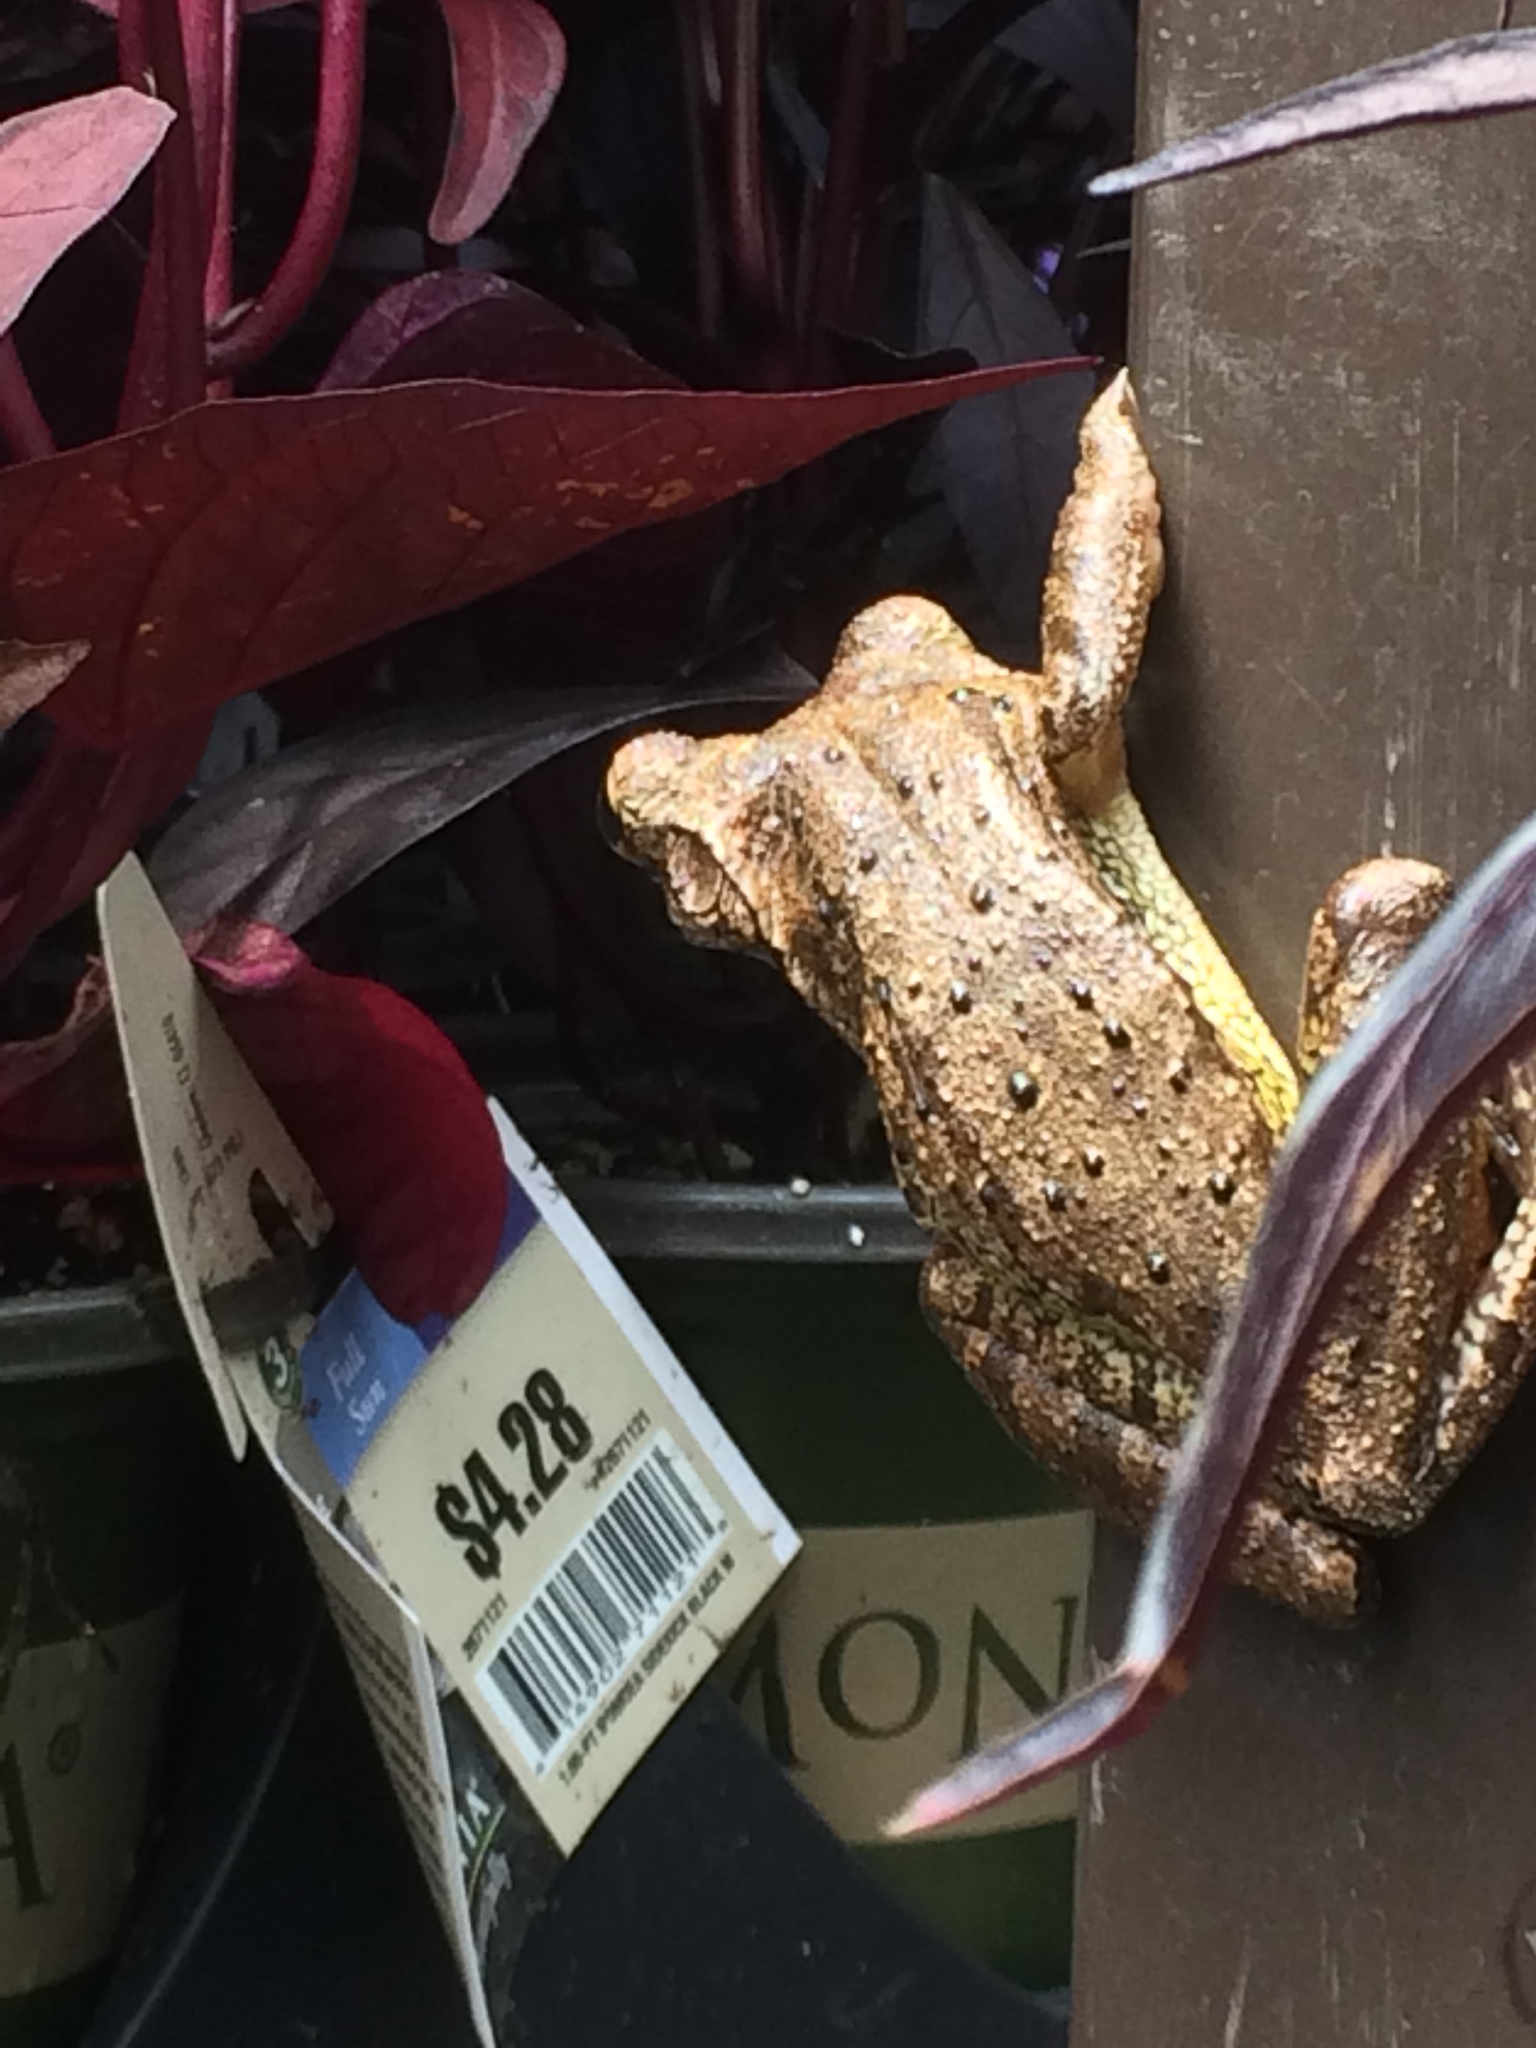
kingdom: Animalia
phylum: Chordata
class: Amphibia
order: Anura
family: Hylidae
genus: Osteopilus
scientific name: Osteopilus septentrionalis
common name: Cuban treefrog
